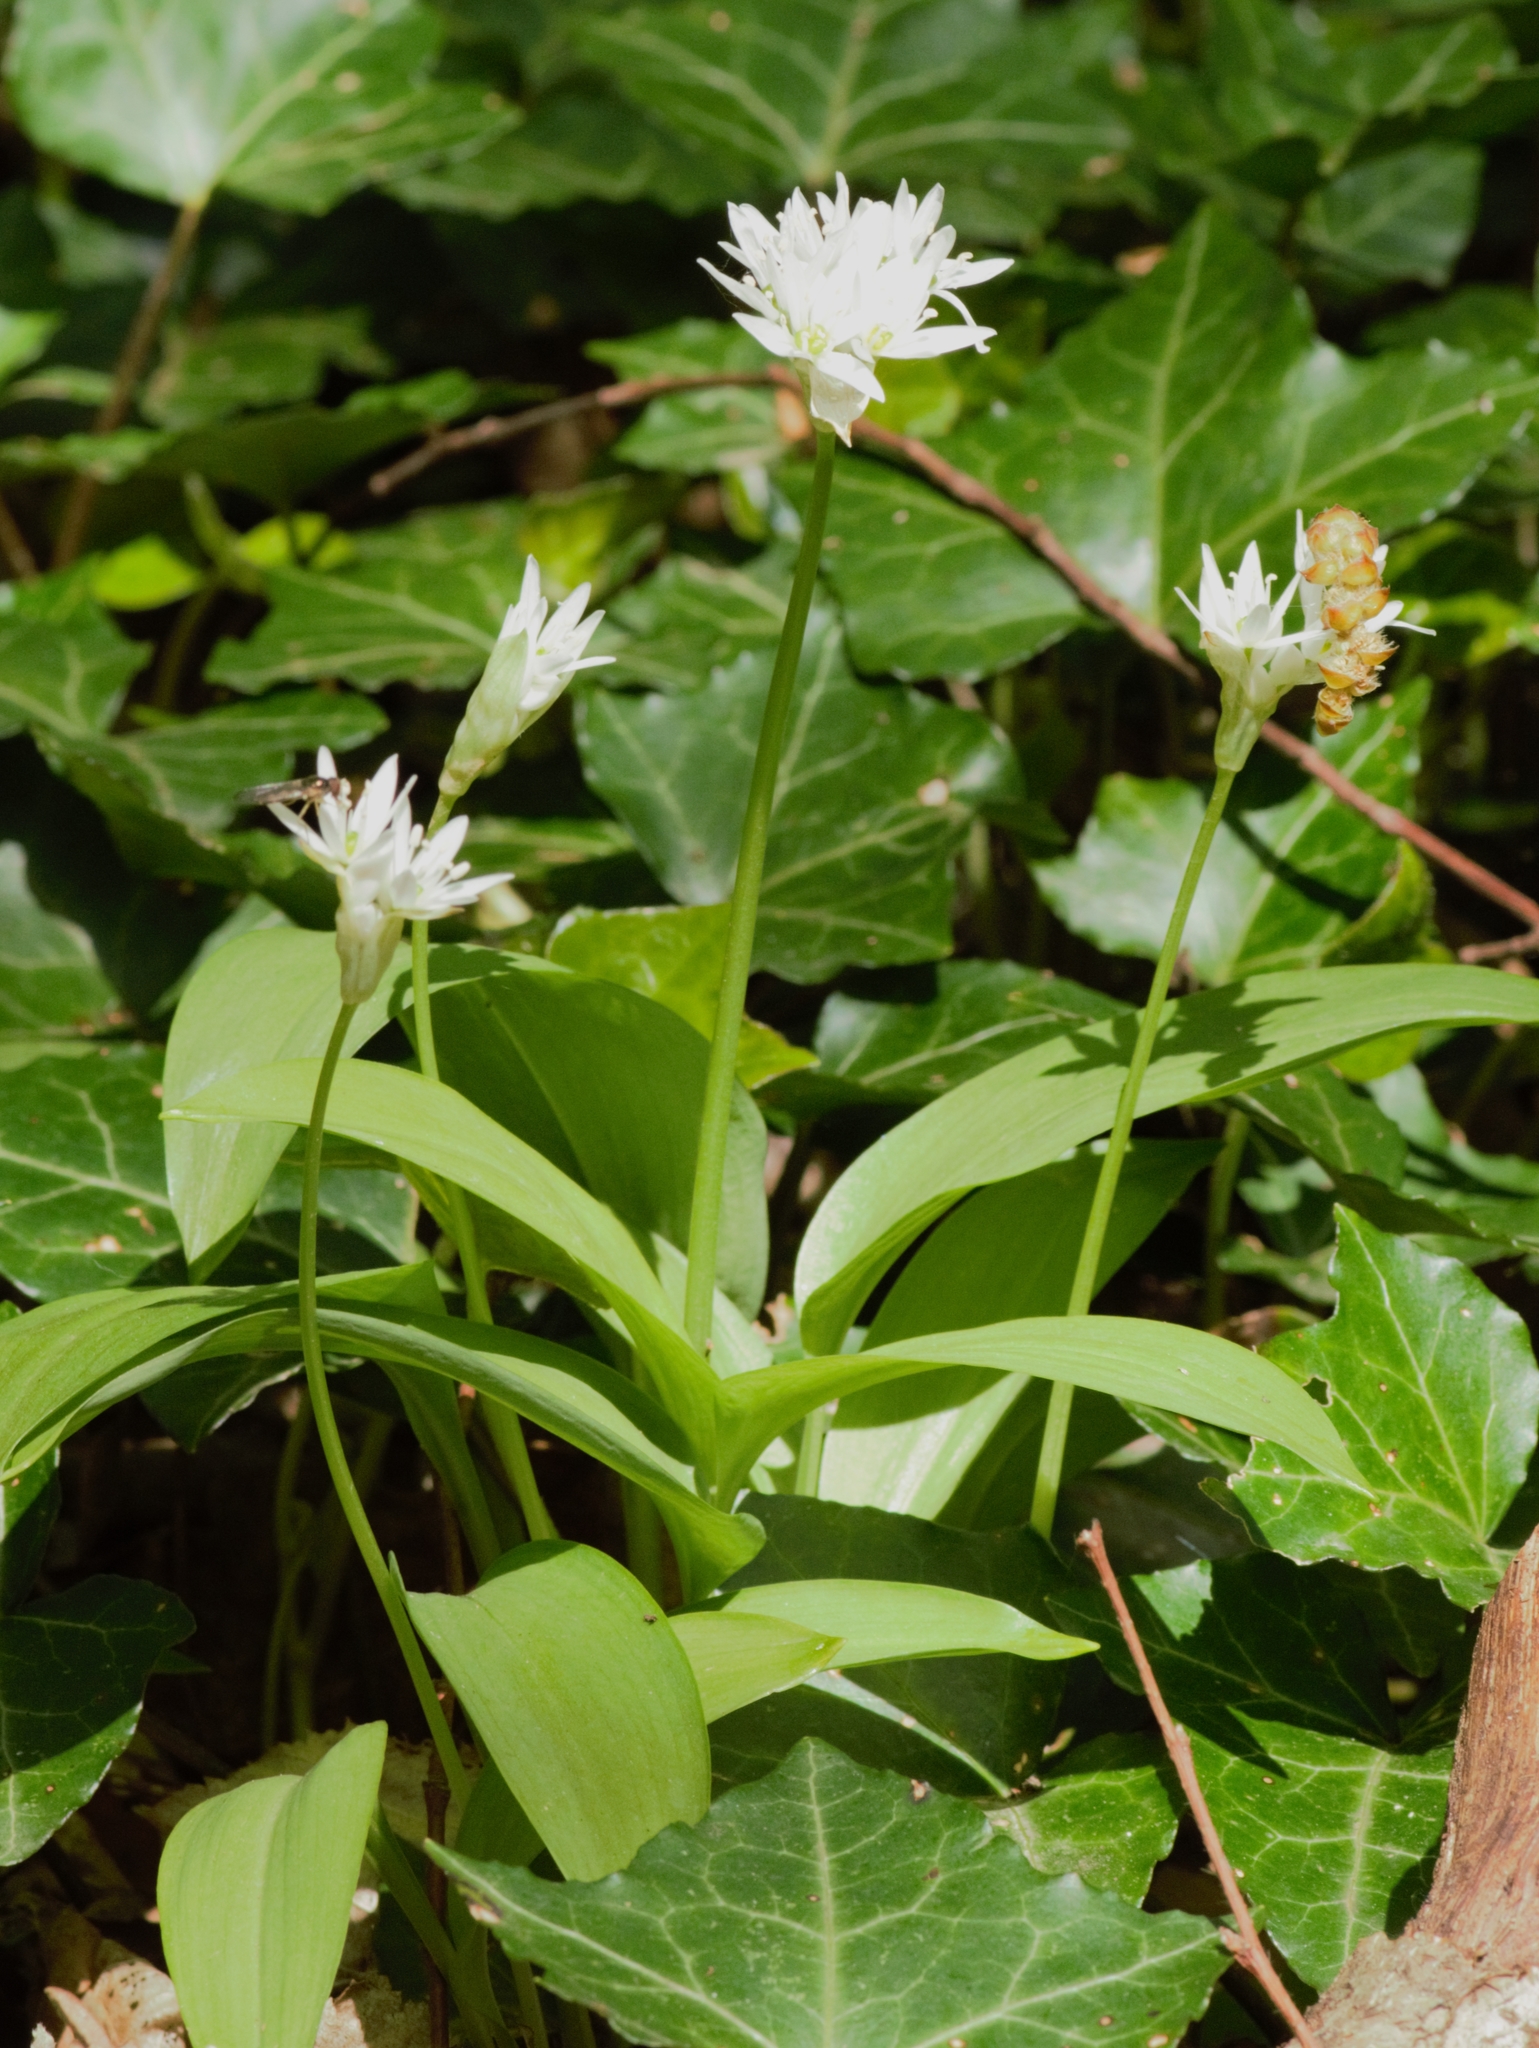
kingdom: Plantae
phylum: Tracheophyta
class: Liliopsida
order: Asparagales
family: Amaryllidaceae
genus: Allium
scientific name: Allium ursinum
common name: Ramsons
